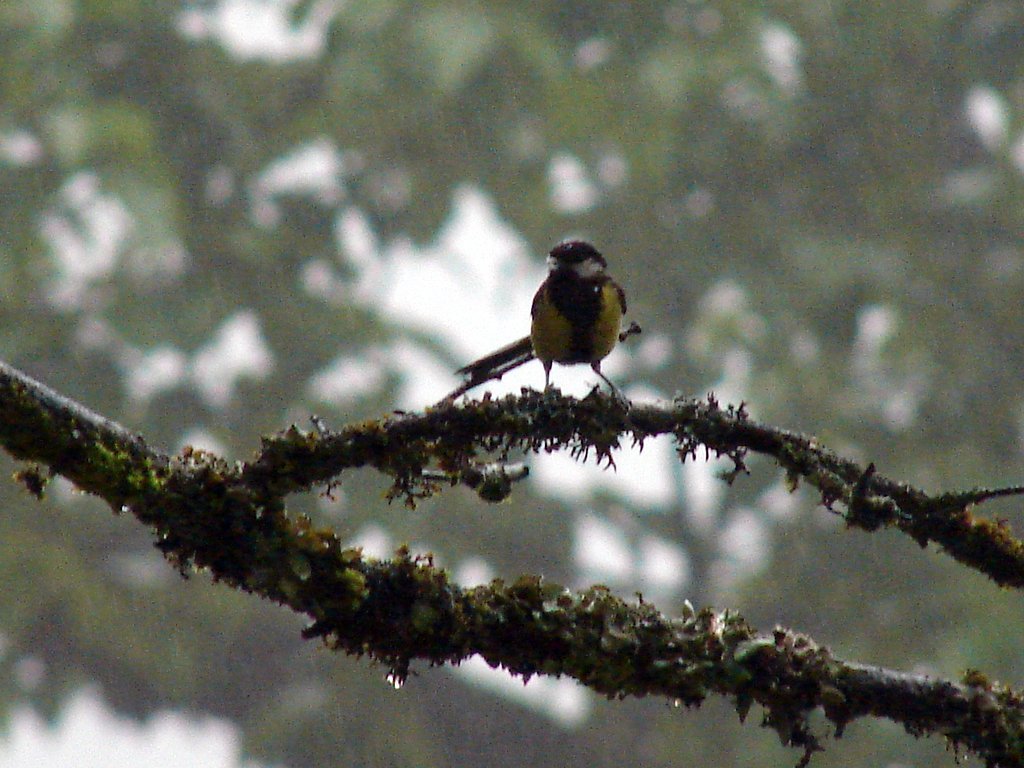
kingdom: Animalia
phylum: Chordata
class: Aves
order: Passeriformes
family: Paridae
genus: Parus
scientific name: Parus monticolus
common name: Green-backed tit
